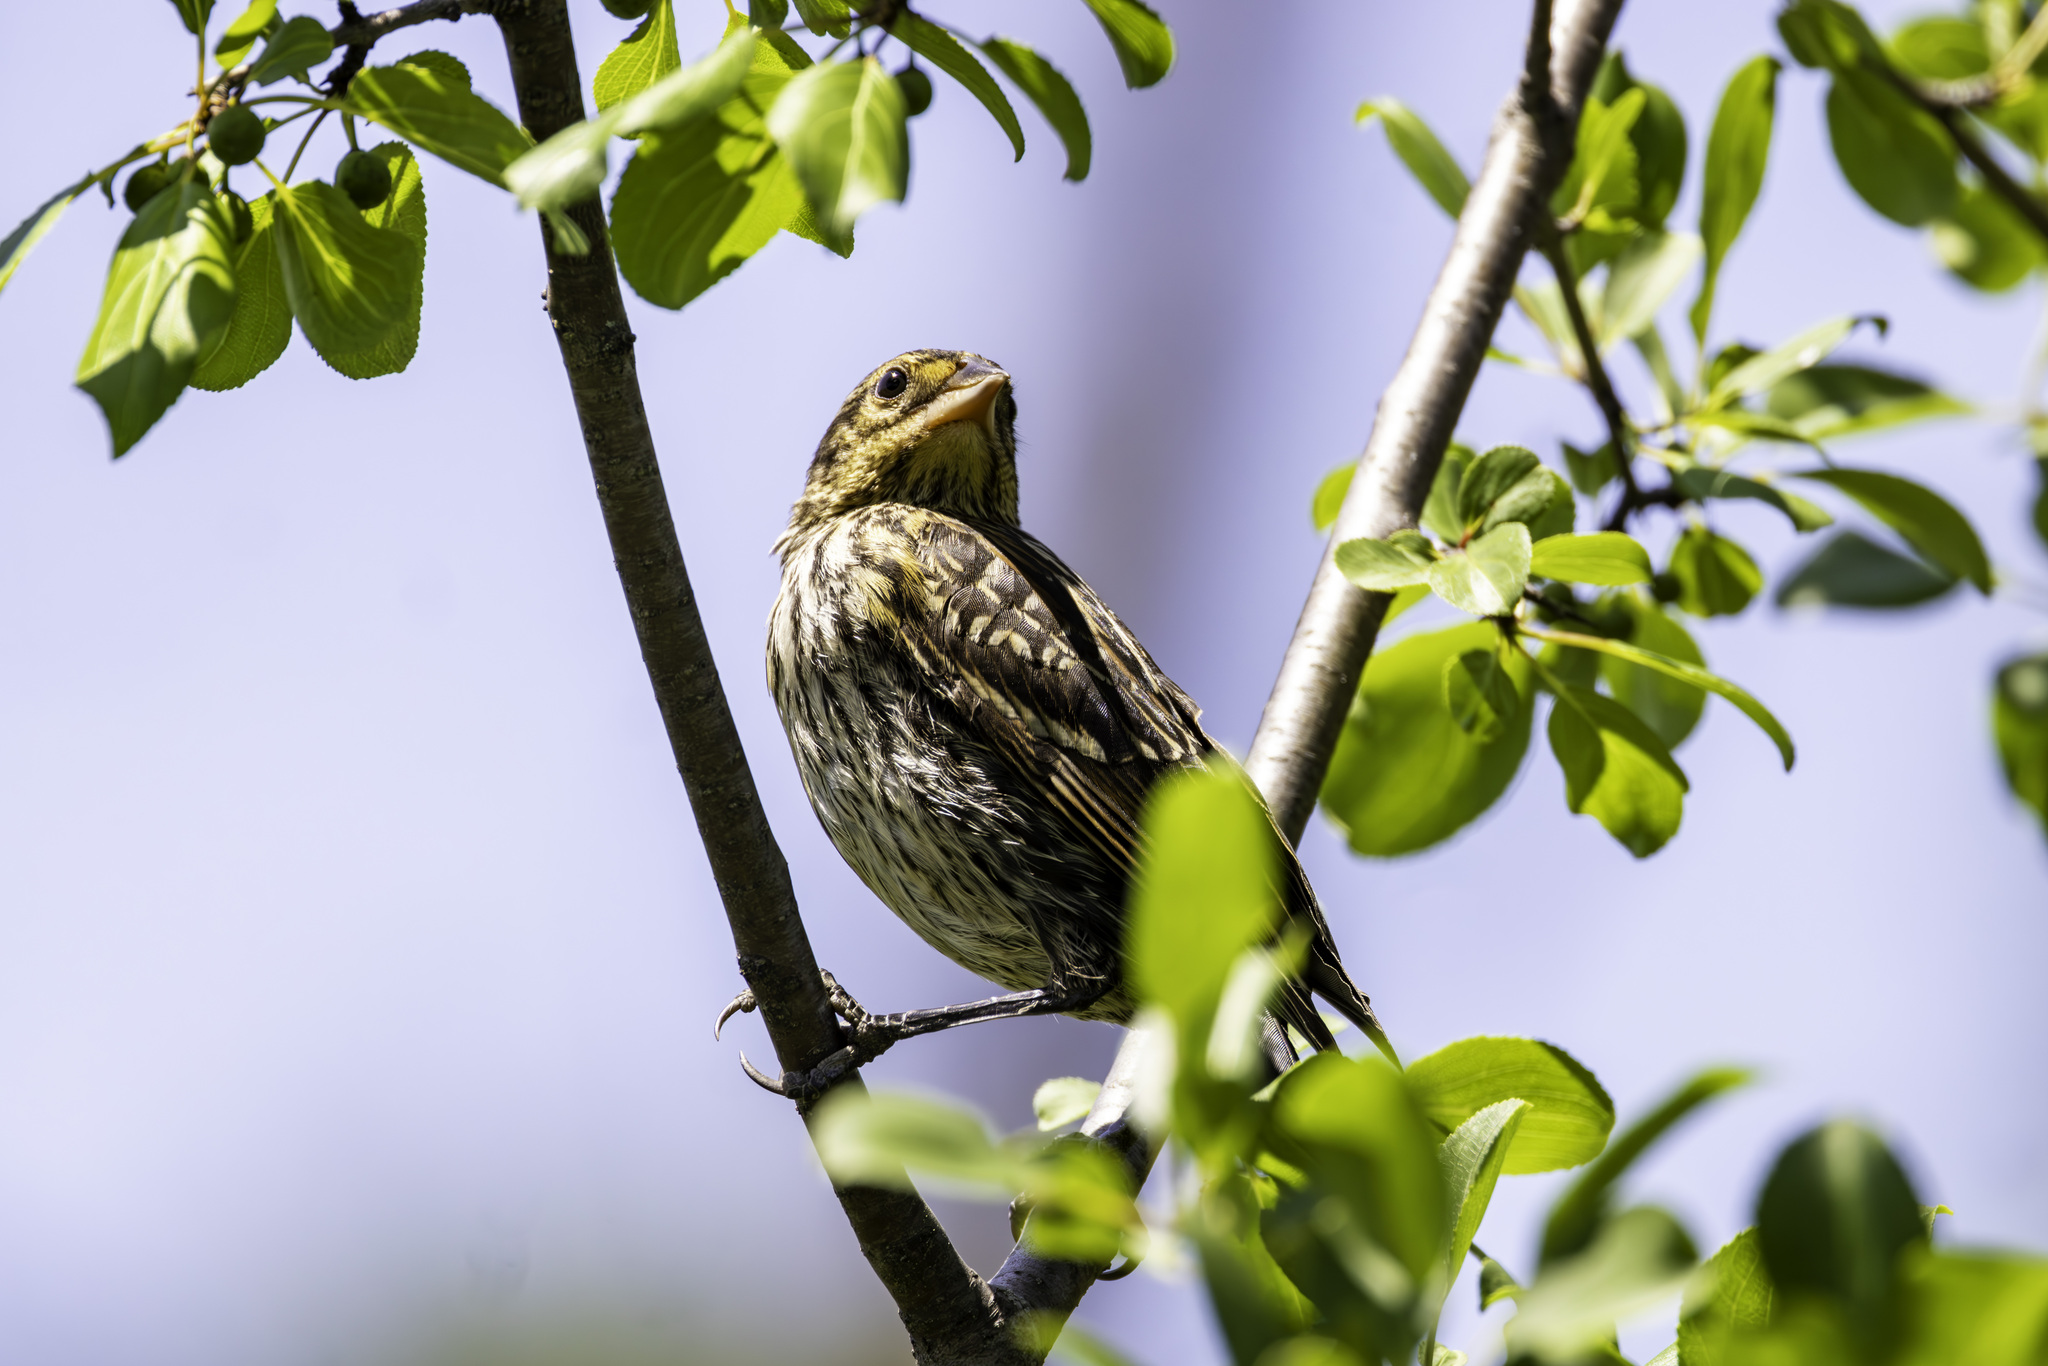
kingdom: Animalia
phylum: Chordata
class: Aves
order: Passeriformes
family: Icteridae
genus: Agelaius
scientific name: Agelaius phoeniceus
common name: Red-winged blackbird
